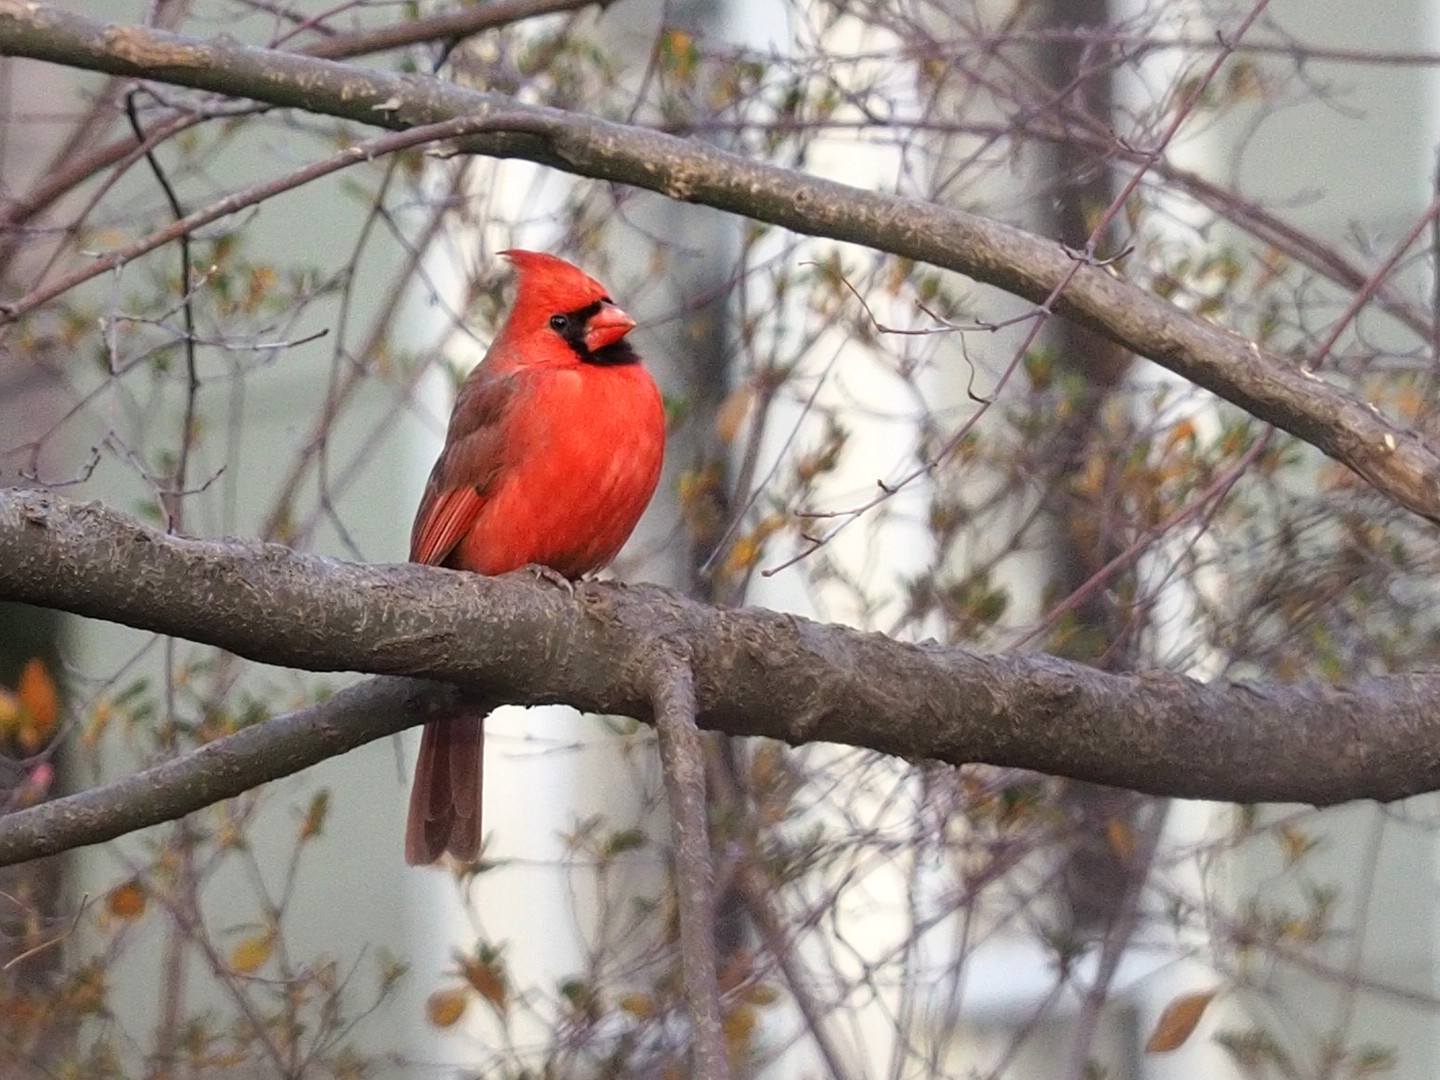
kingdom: Animalia
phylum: Chordata
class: Aves
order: Passeriformes
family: Cardinalidae
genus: Cardinalis
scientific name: Cardinalis cardinalis
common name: Northern cardinal
